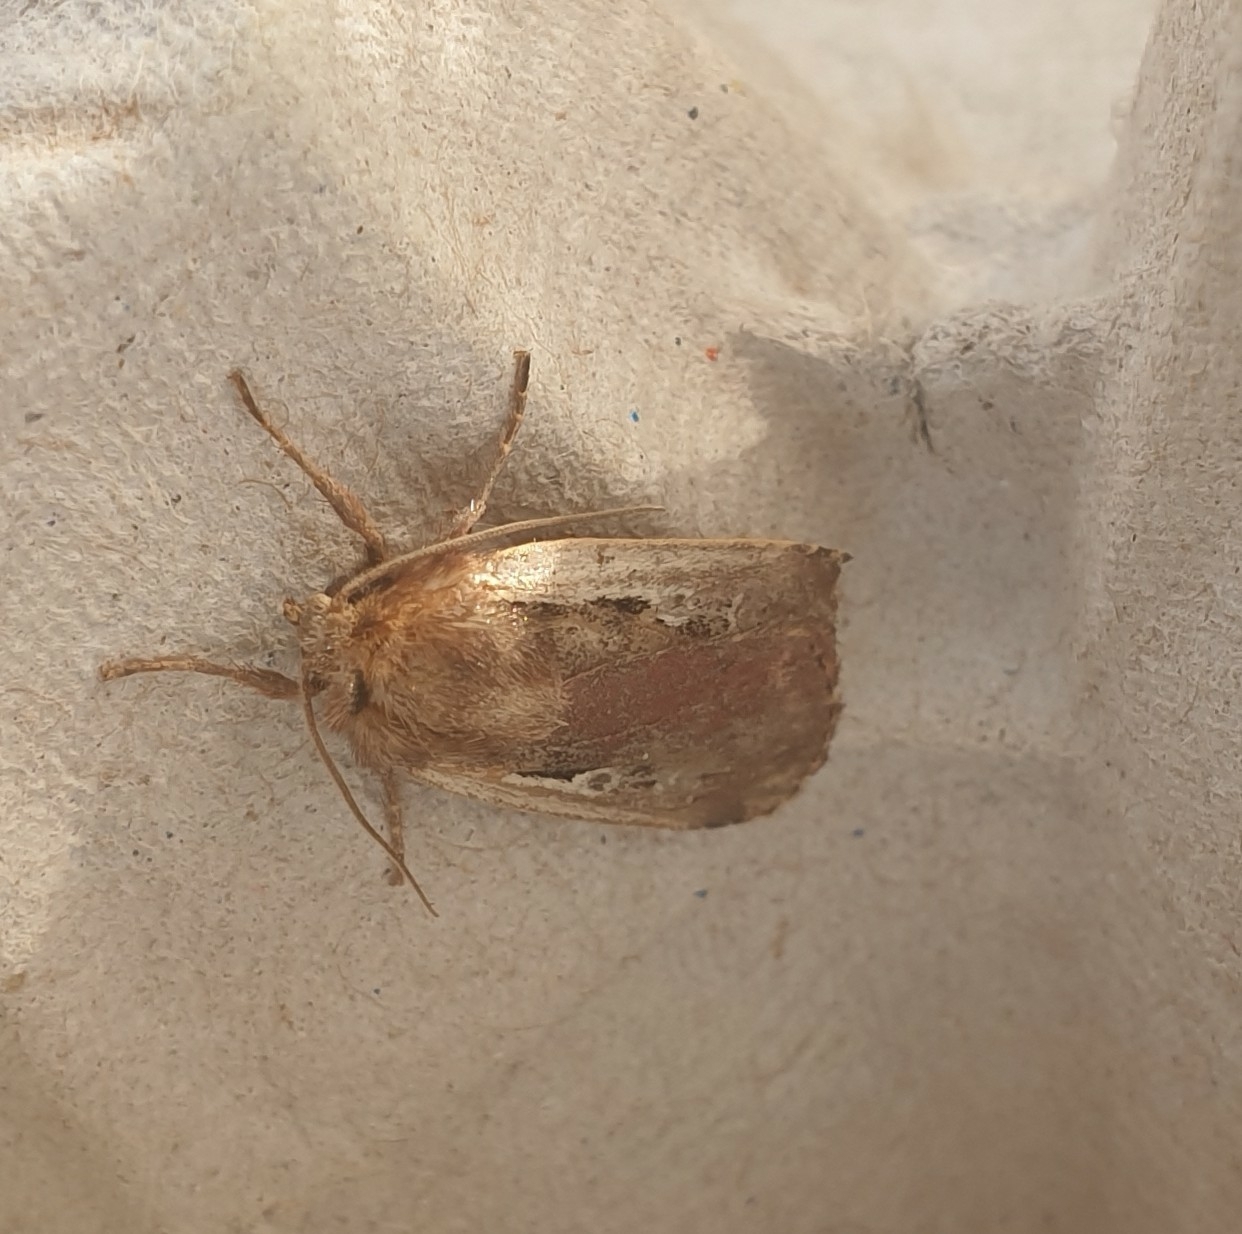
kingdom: Animalia
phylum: Arthropoda
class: Insecta
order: Lepidoptera
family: Noctuidae
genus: Ochropleura
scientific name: Ochropleura plecta
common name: Flame shoulder
